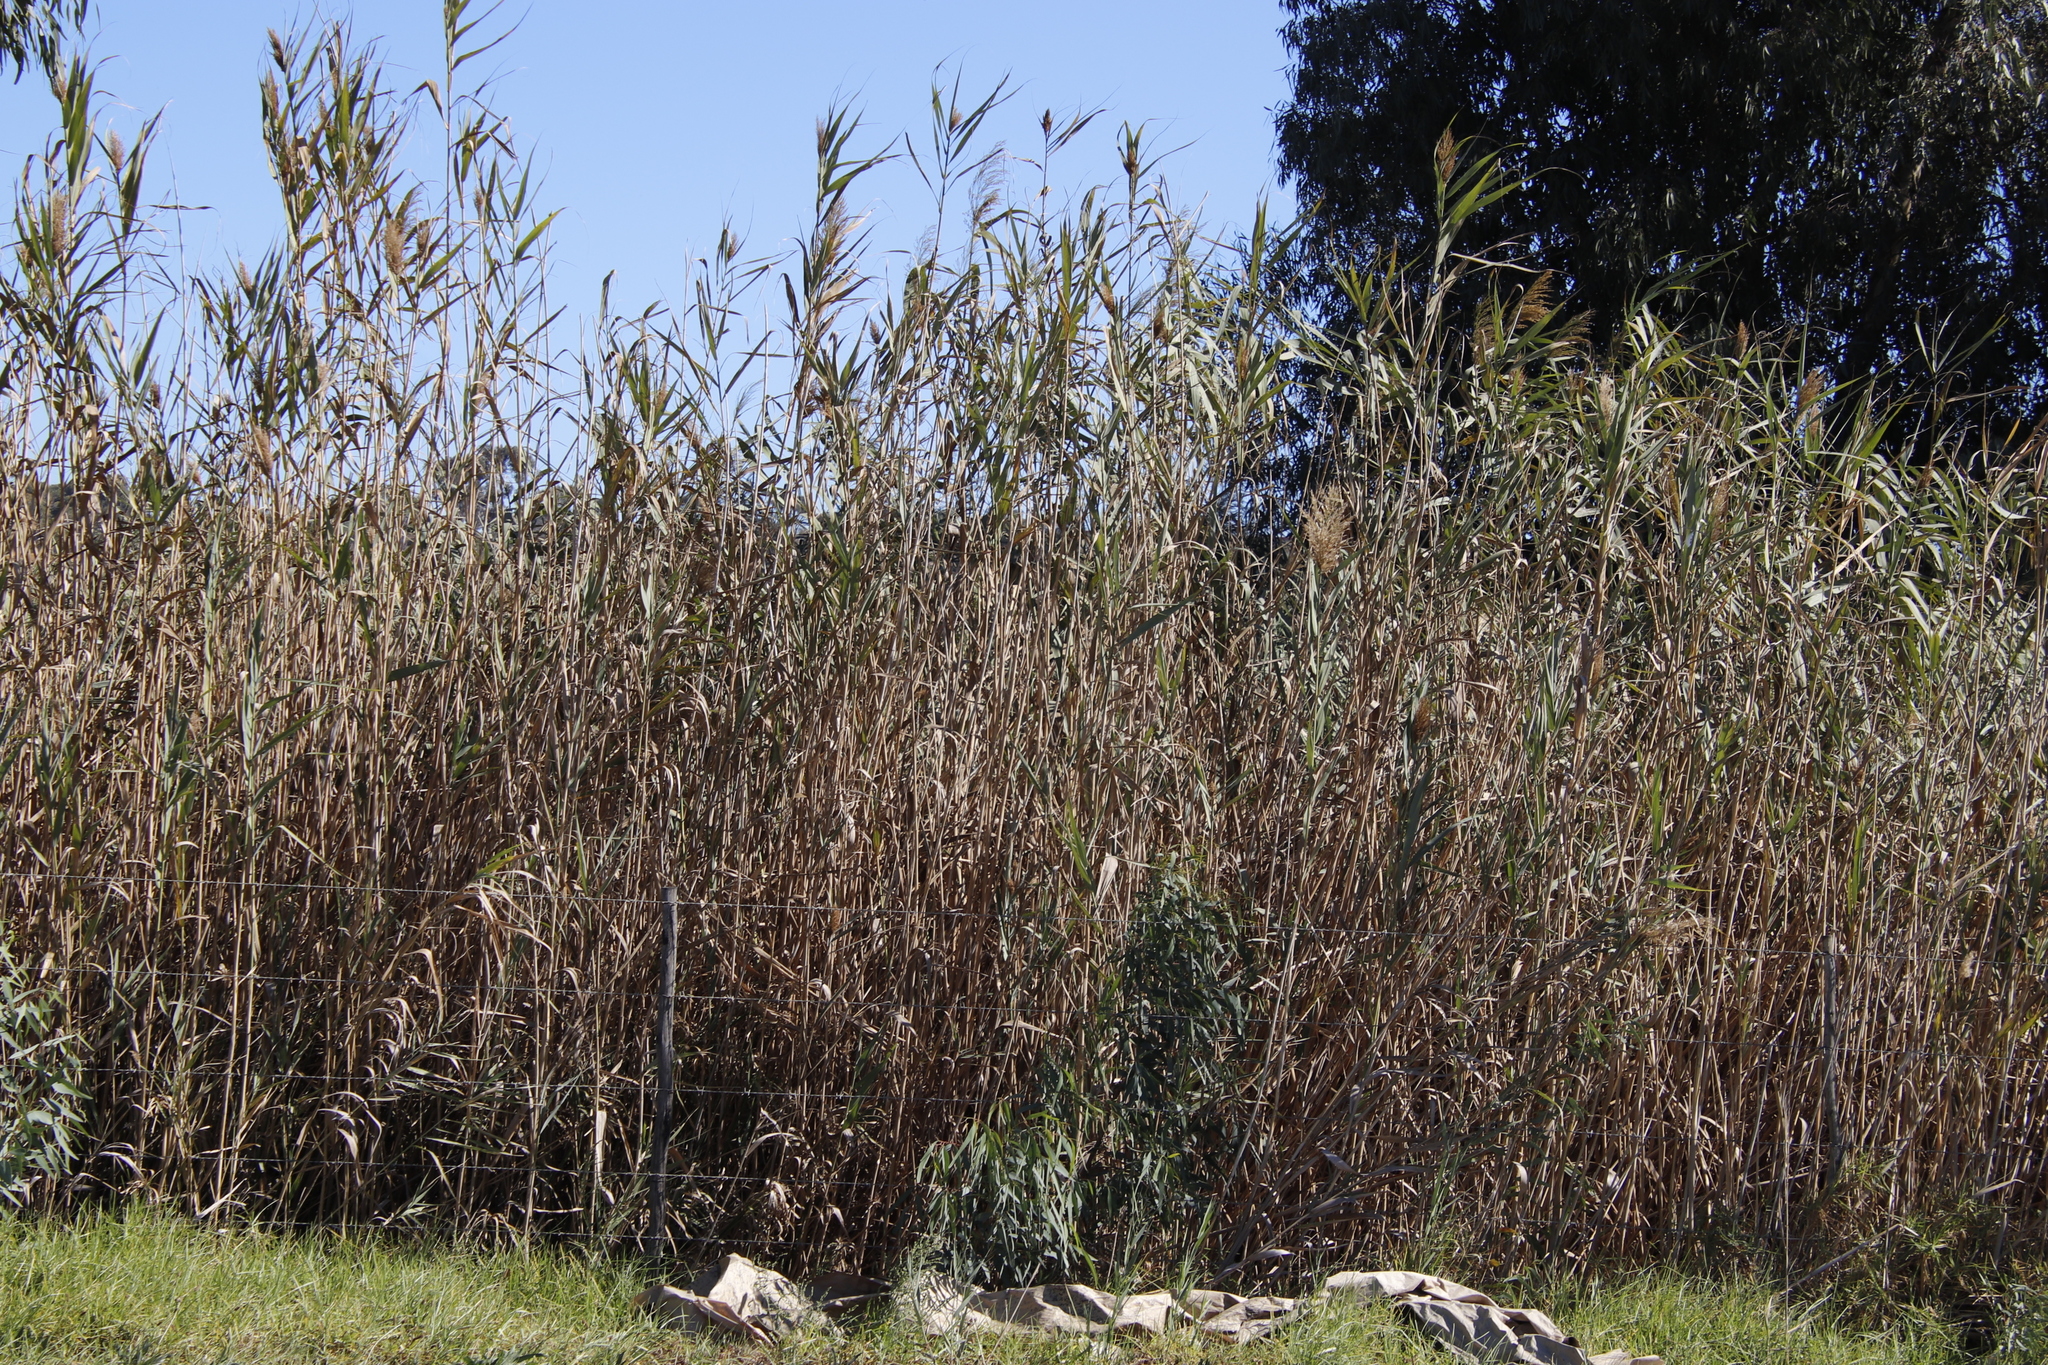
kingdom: Plantae
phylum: Tracheophyta
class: Liliopsida
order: Poales
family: Poaceae
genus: Phragmites
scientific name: Phragmites australis
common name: Common reed
